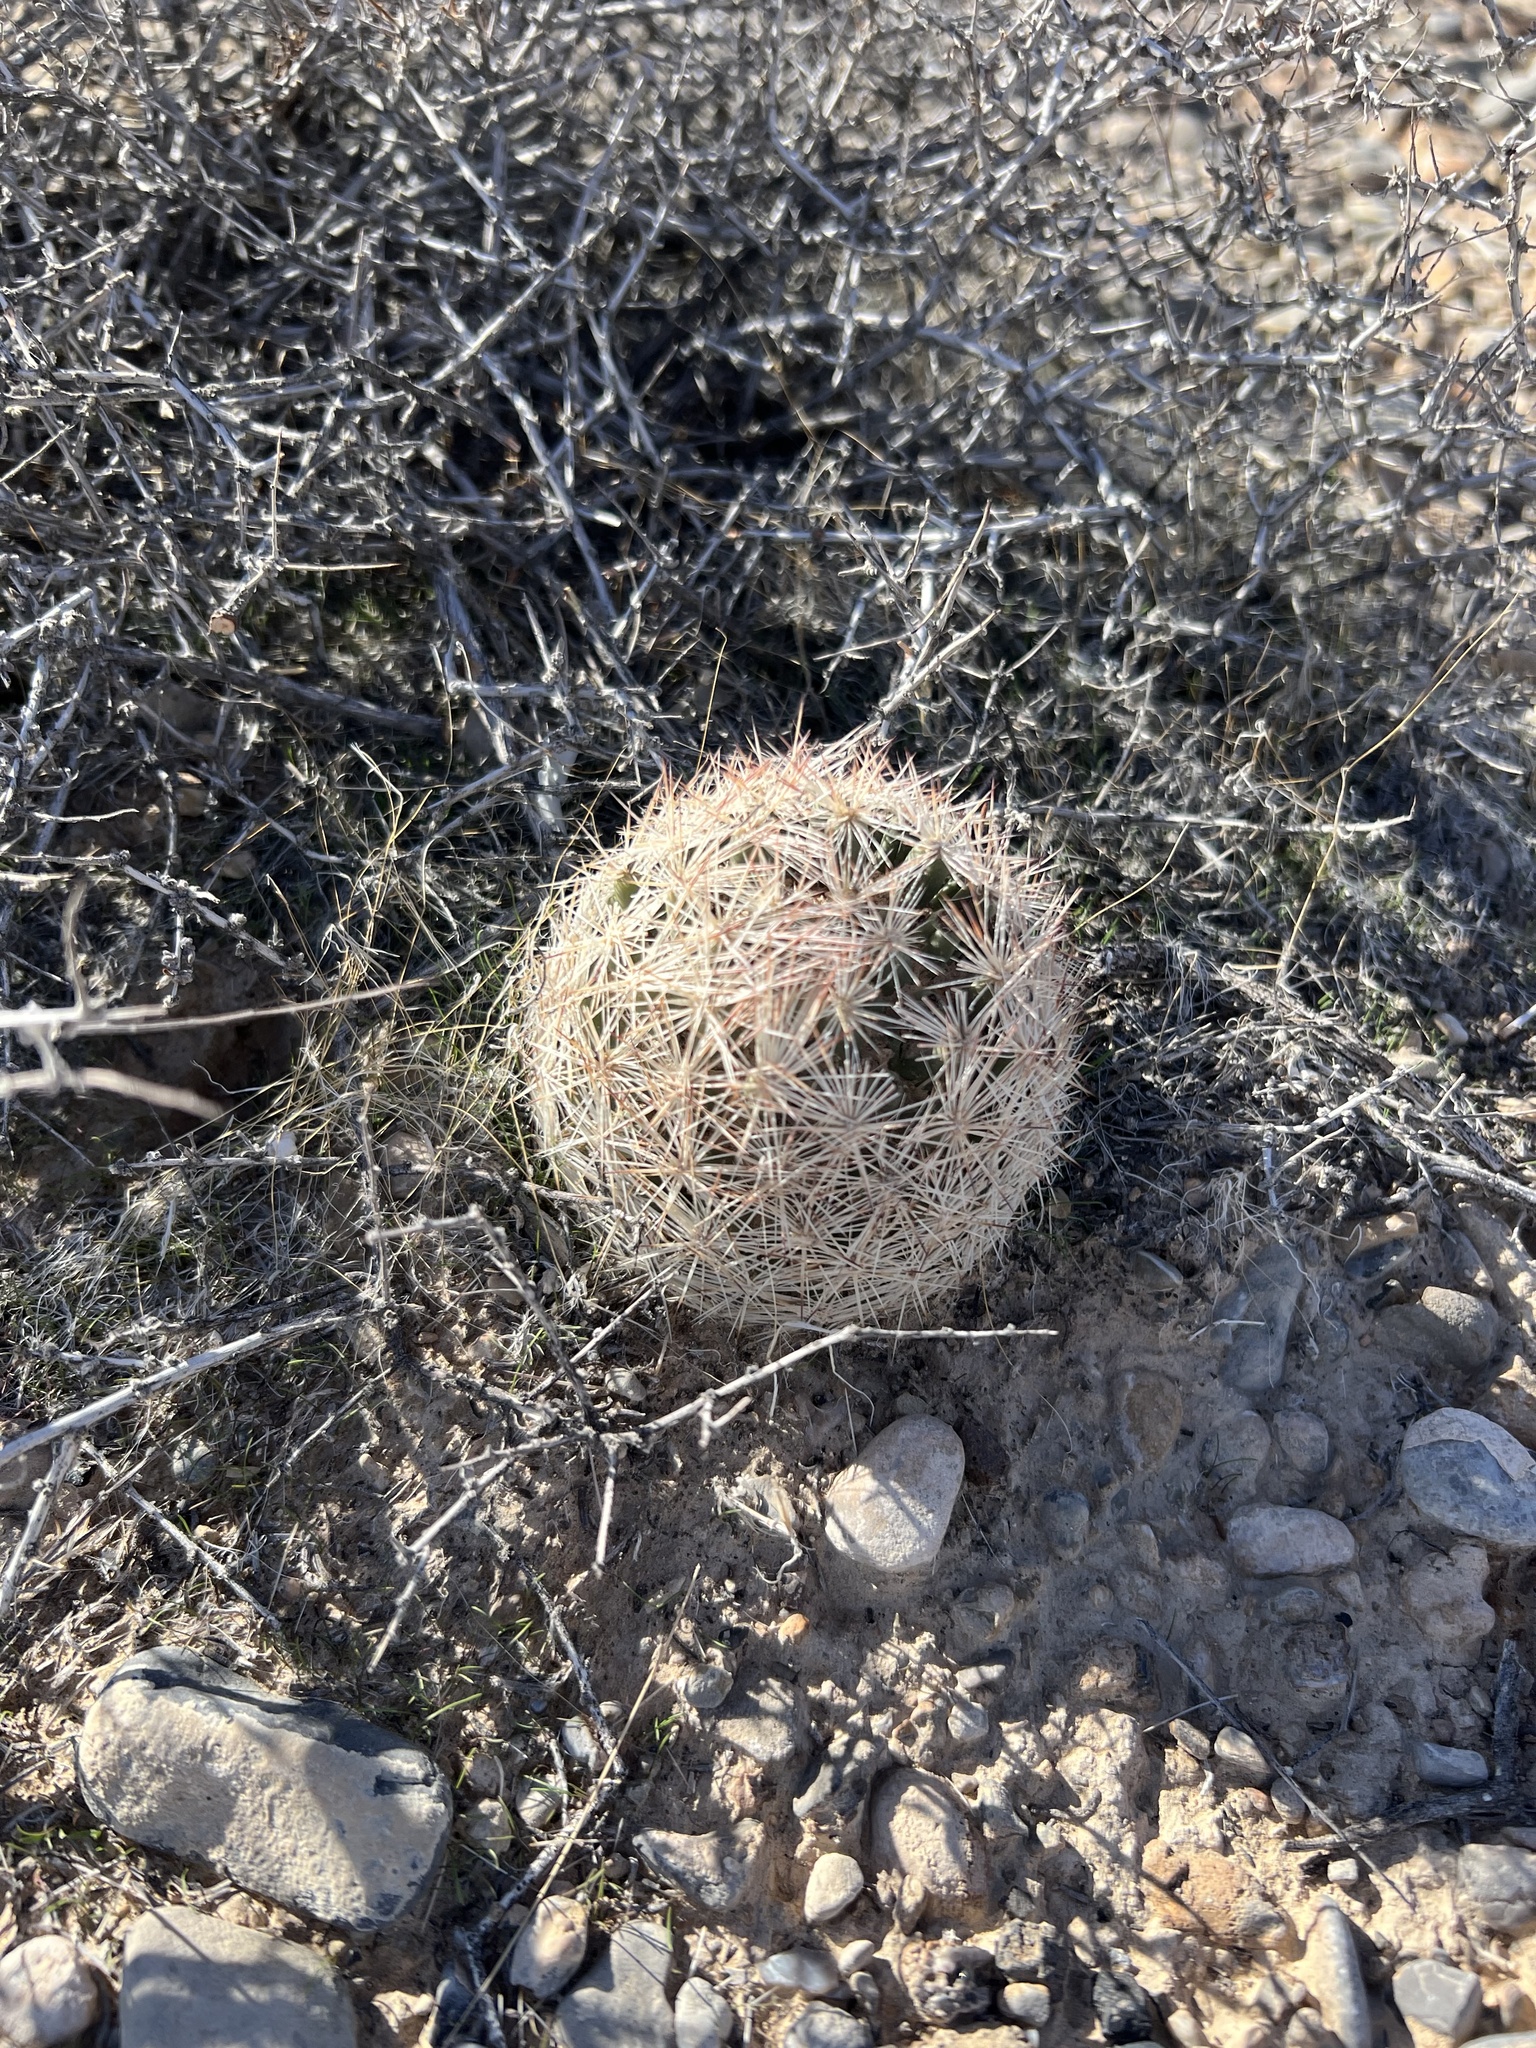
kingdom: Plantae
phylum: Tracheophyta
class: Magnoliopsida
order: Caryophyllales
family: Cactaceae
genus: Pelecyphora
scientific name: Pelecyphora dasyacantha
